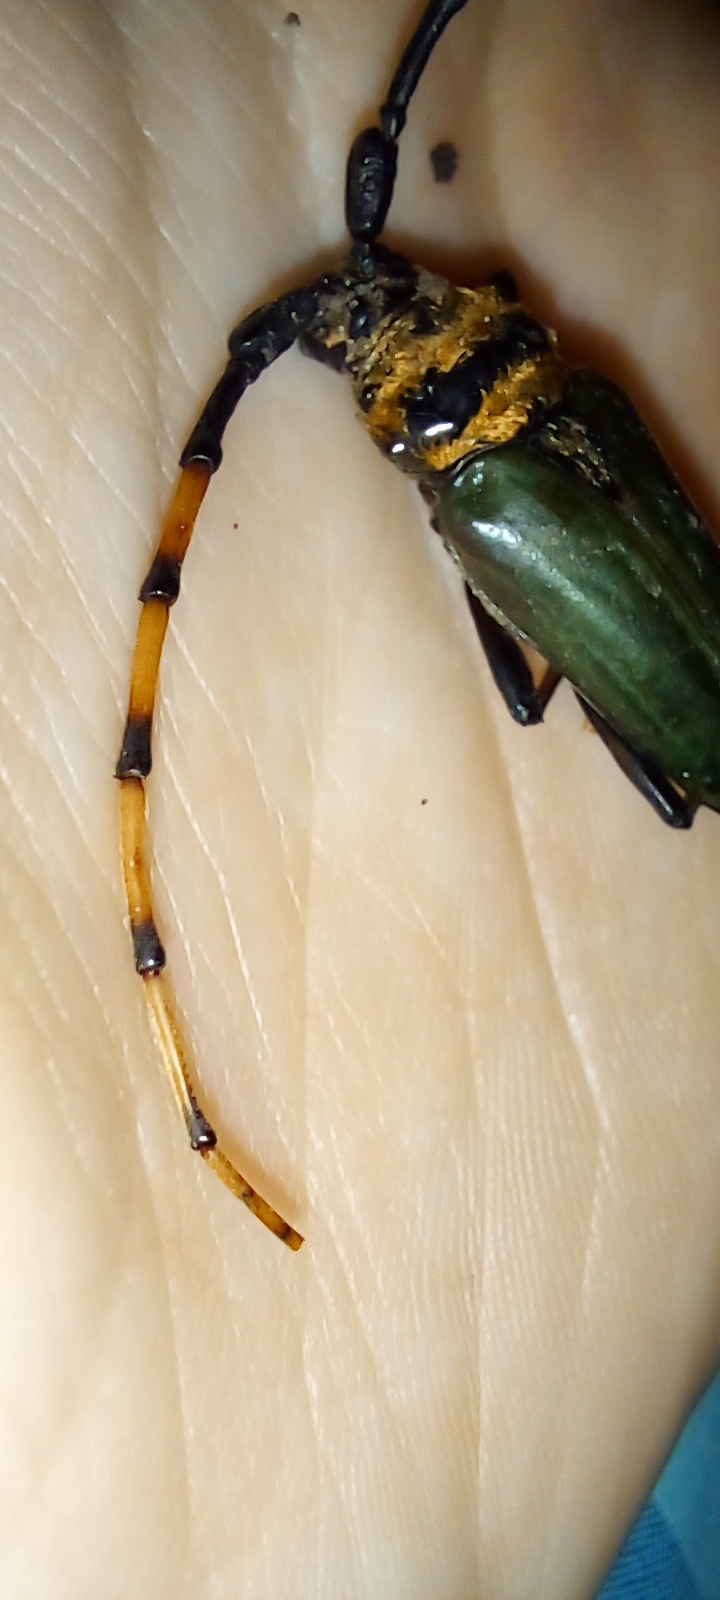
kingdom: Animalia
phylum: Arthropoda
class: Insecta
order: Coleoptera
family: Cerambycidae
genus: Retrachydes
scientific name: Retrachydes thoracicus
